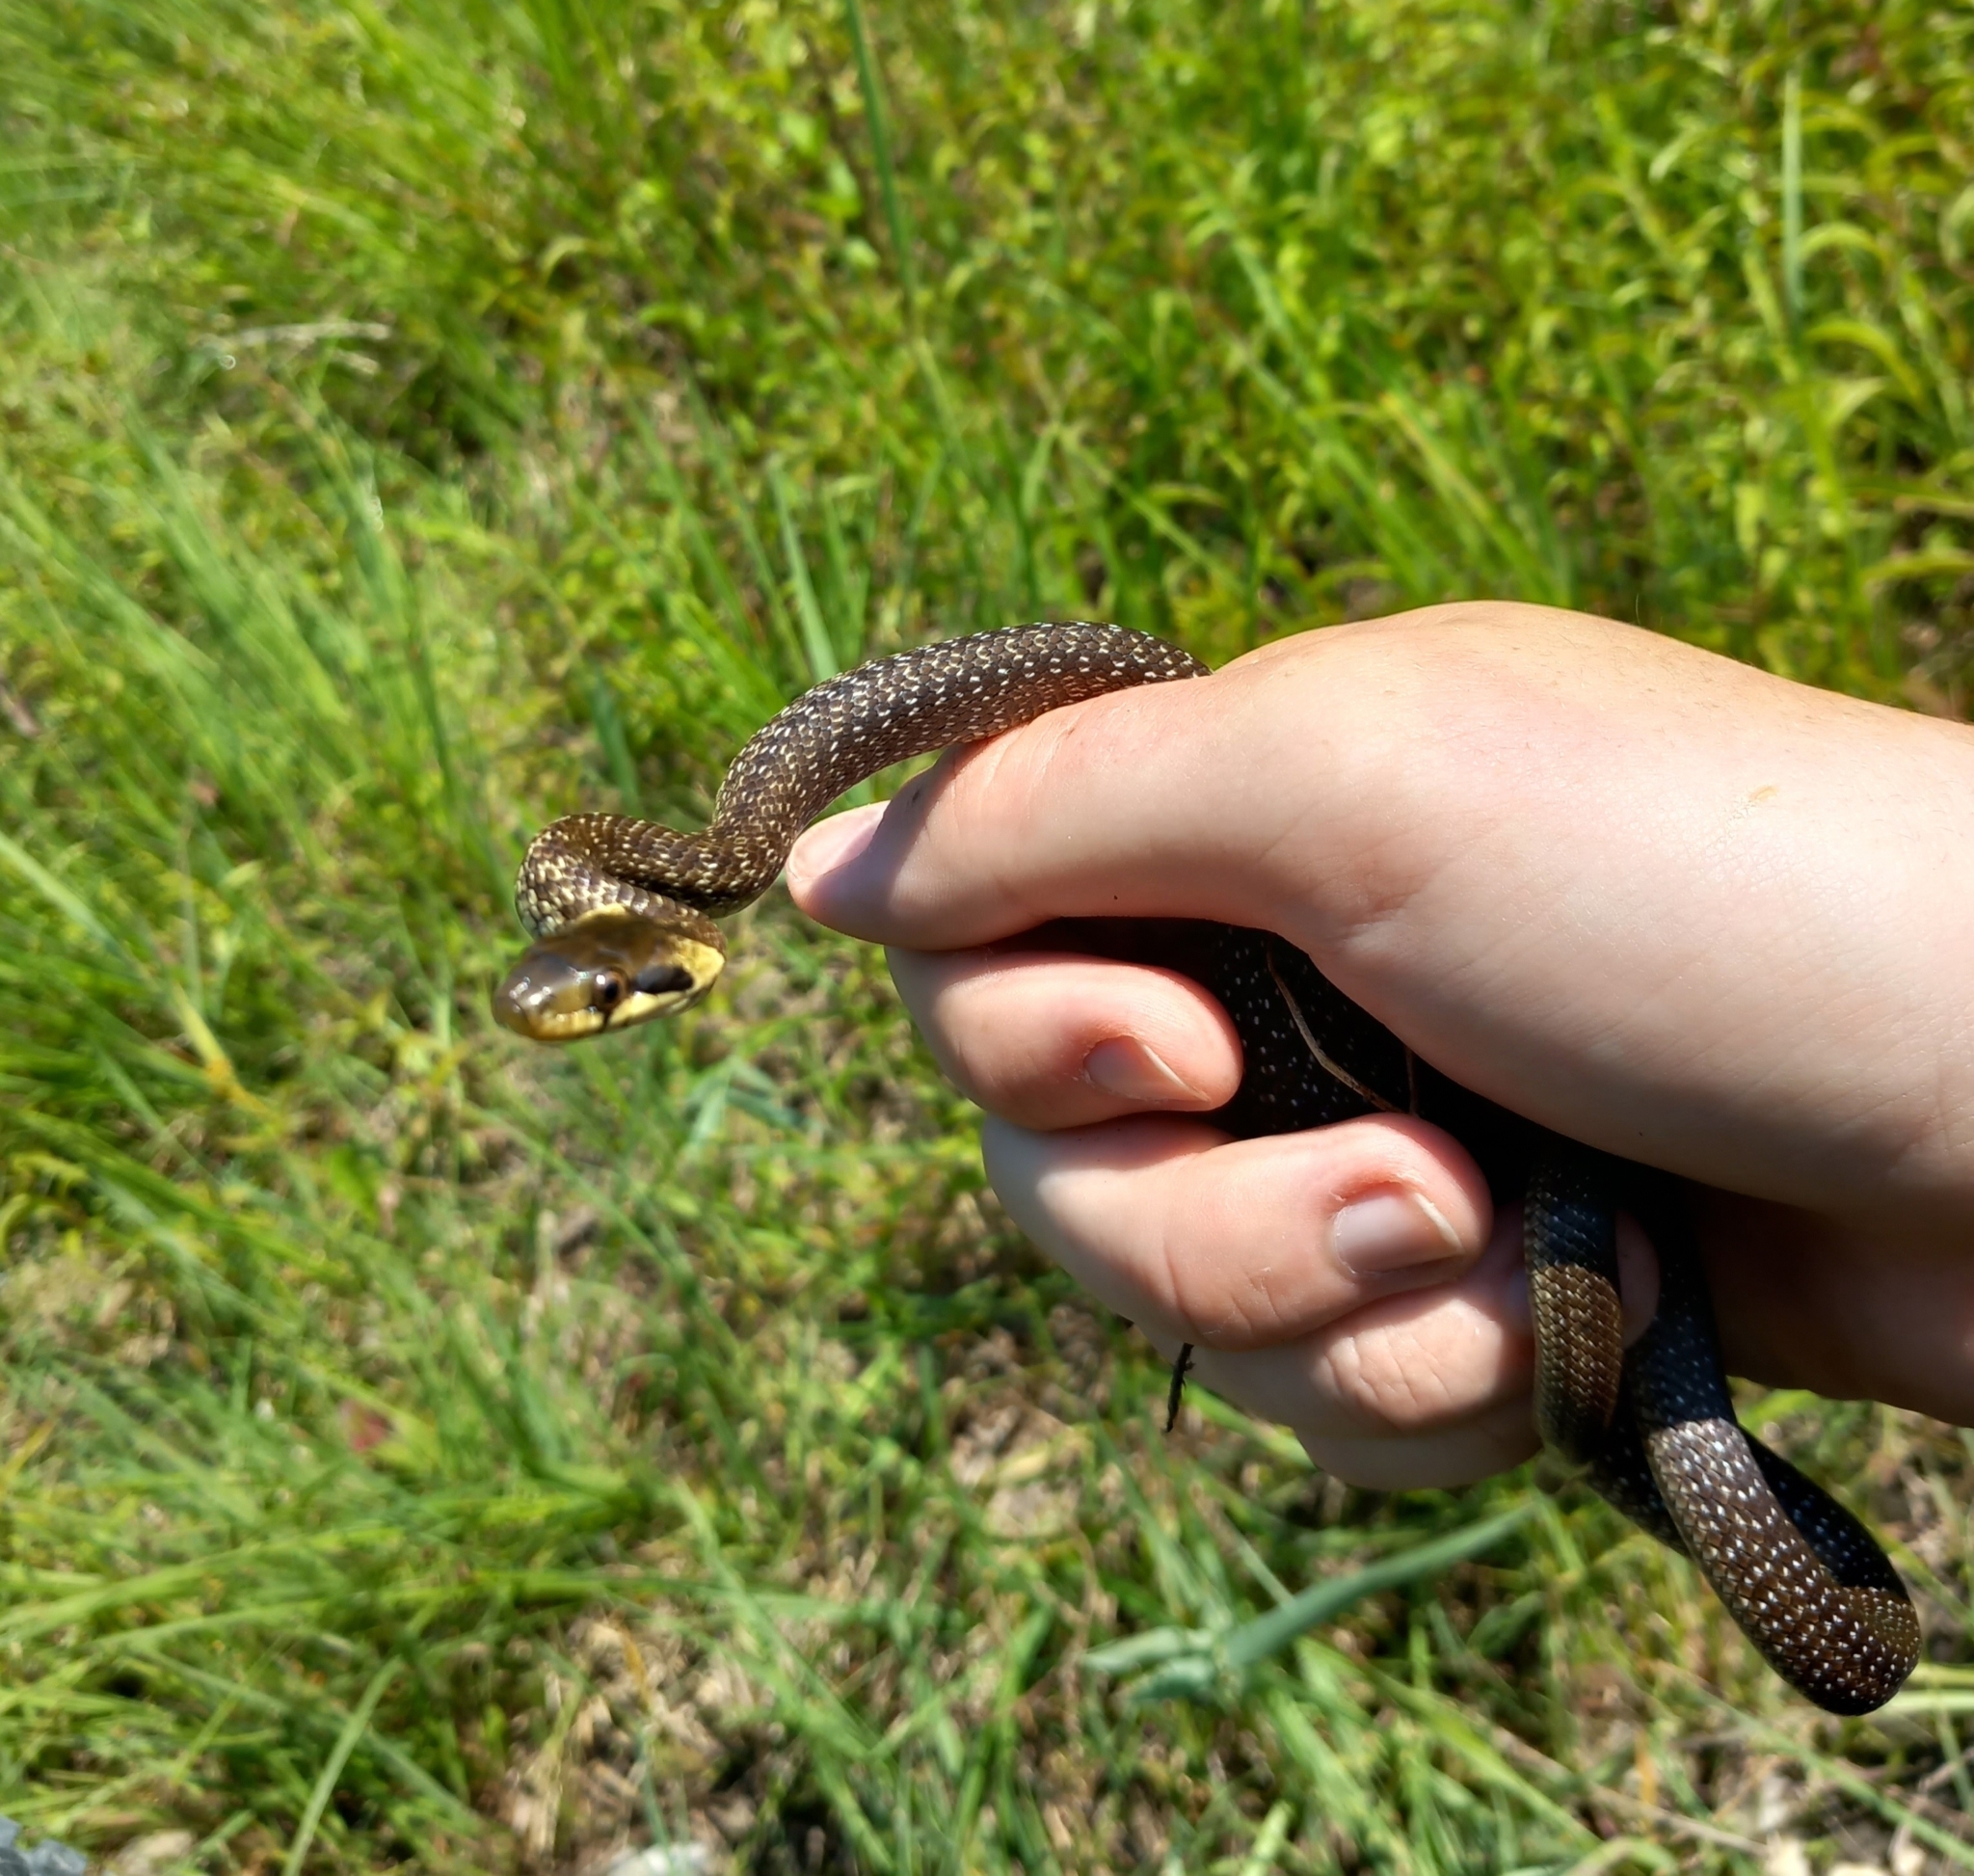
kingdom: Animalia
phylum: Chordata
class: Squamata
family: Colubridae
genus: Zamenis
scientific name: Zamenis longissimus
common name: Aesculapean snake
